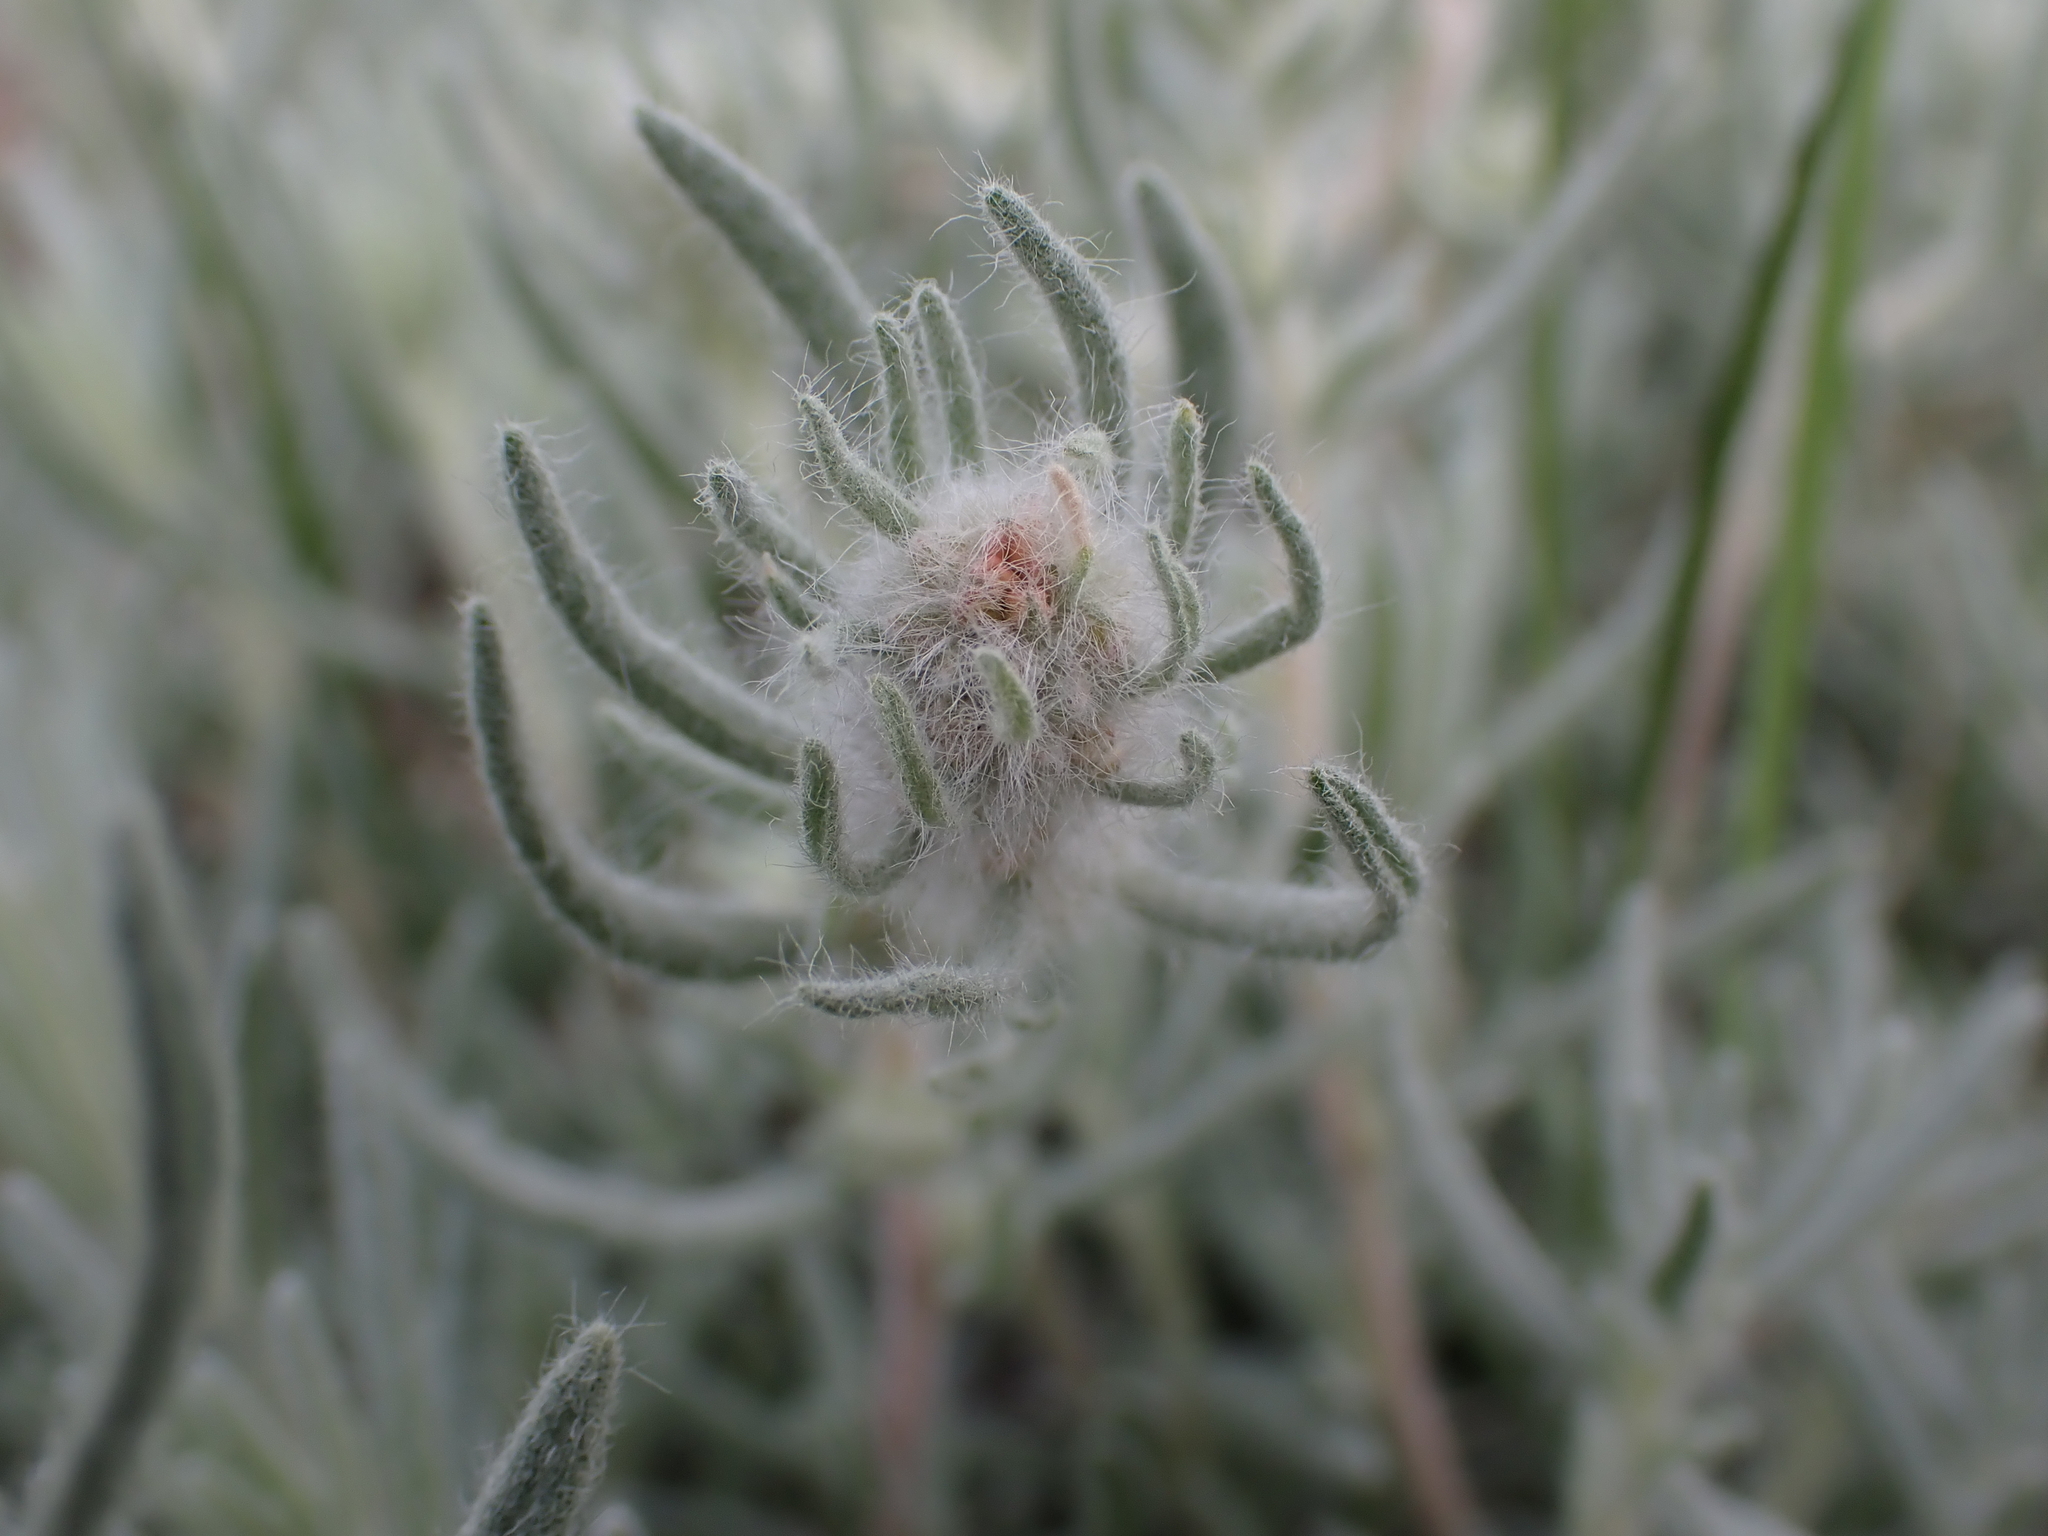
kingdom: Plantae
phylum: Tracheophyta
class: Magnoliopsida
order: Caryophyllales
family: Amaranthaceae
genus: Krascheninnikovia
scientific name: Krascheninnikovia lanata
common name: Winterfat
